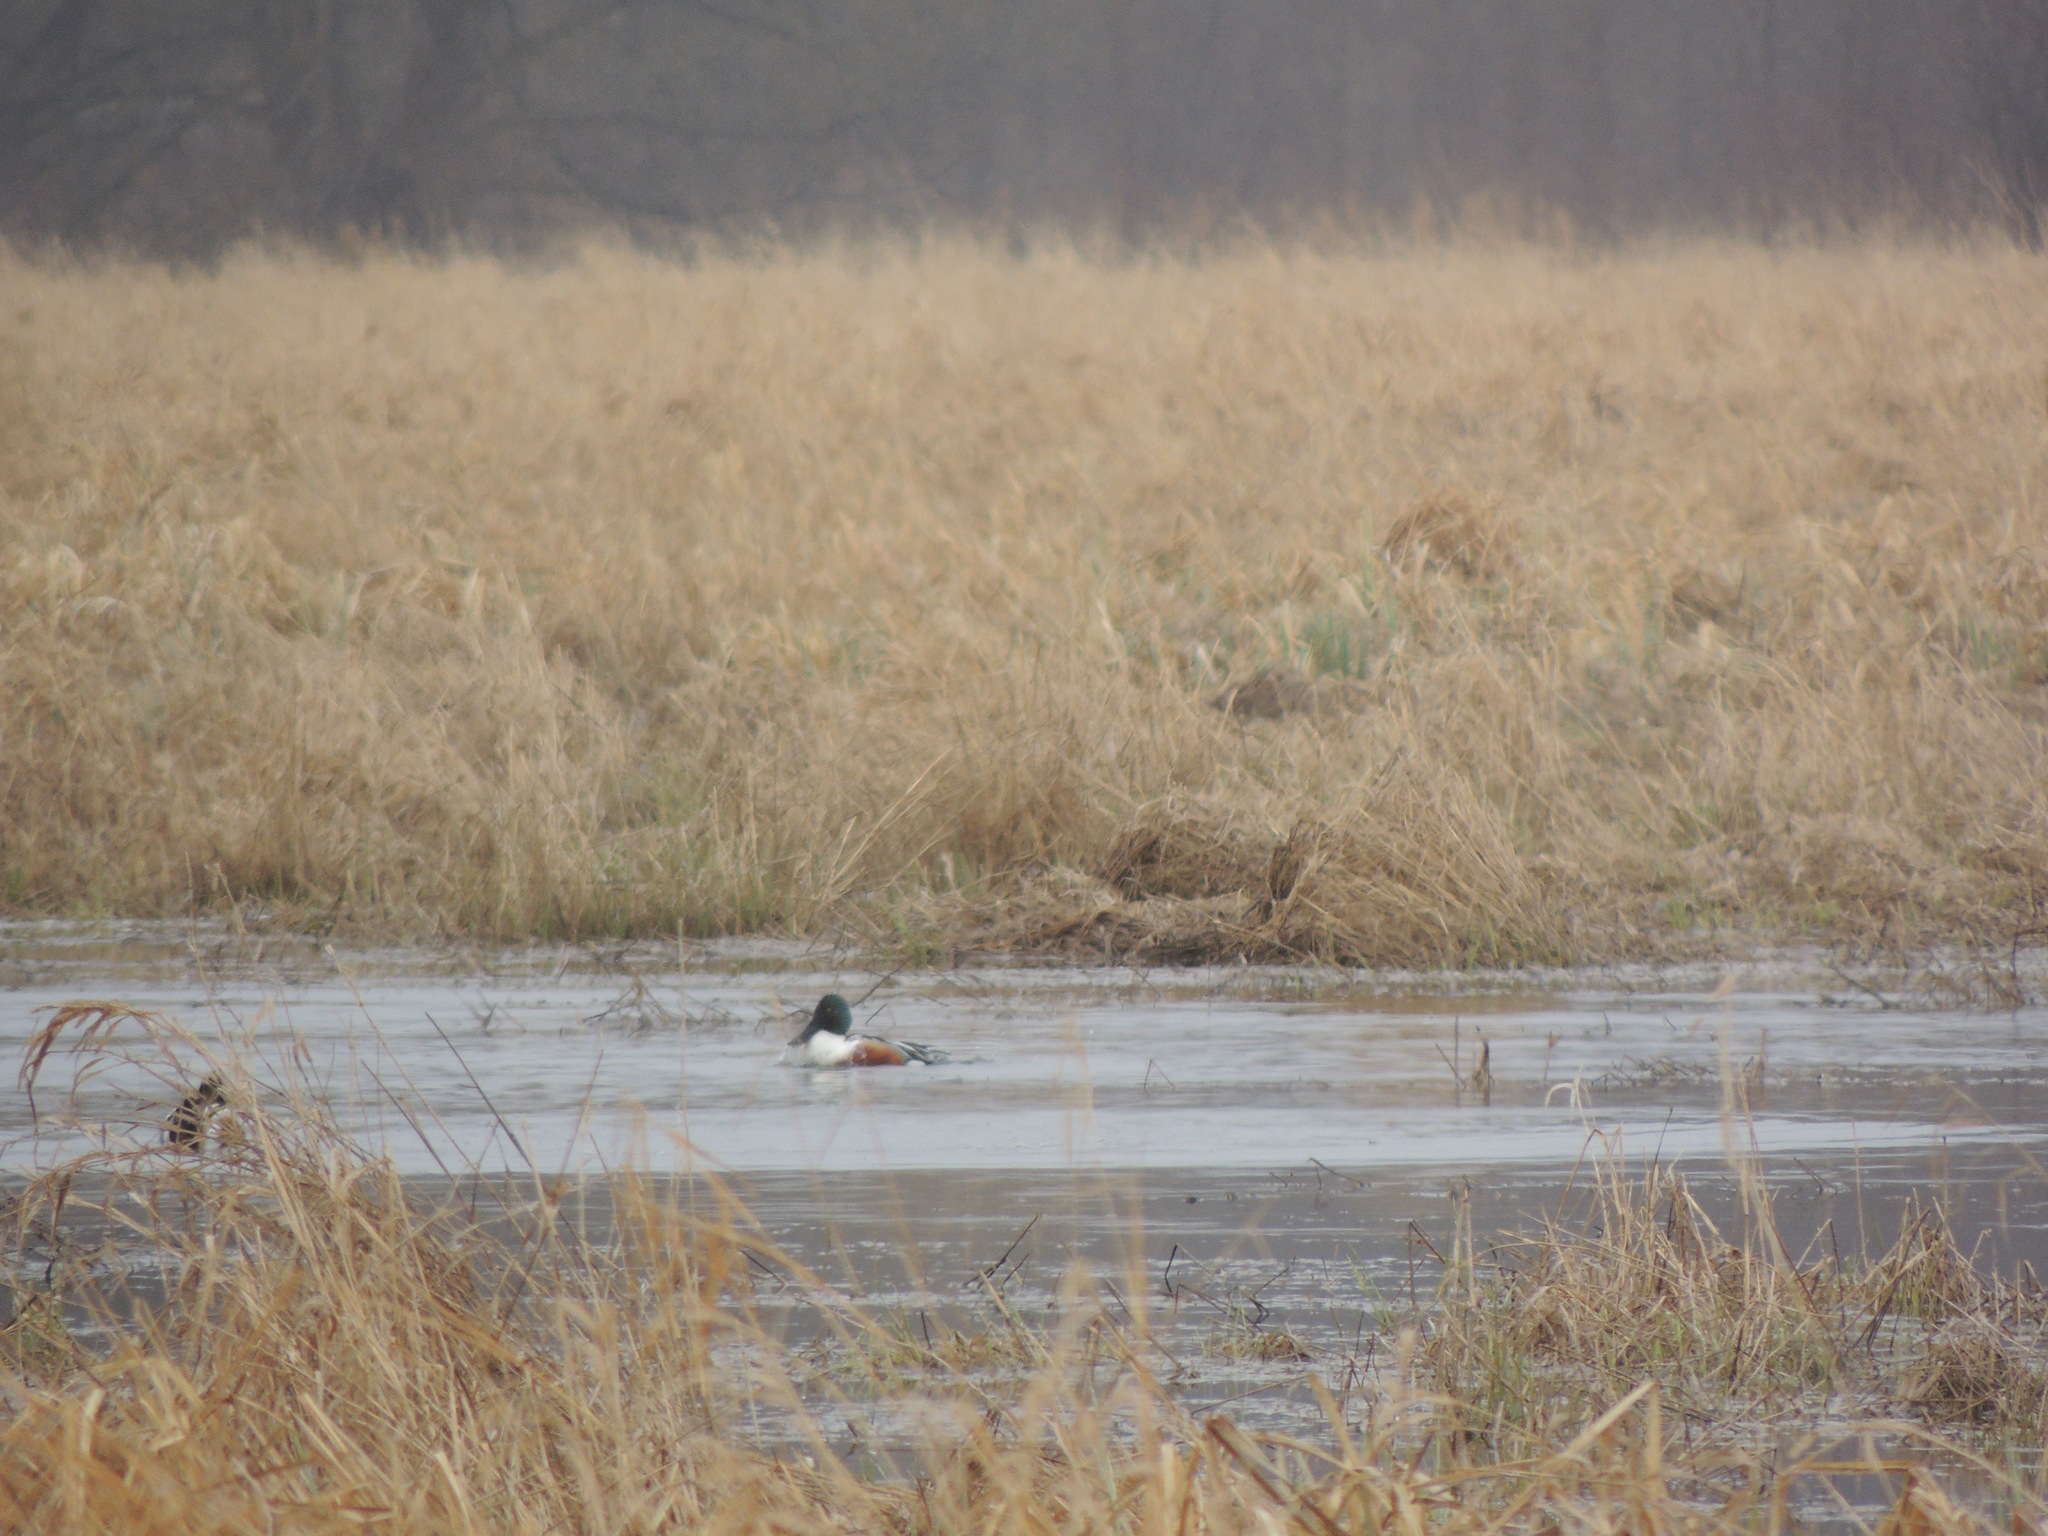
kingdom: Animalia
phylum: Chordata
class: Aves
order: Anseriformes
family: Anatidae
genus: Spatula
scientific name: Spatula clypeata
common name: Northern shoveler
